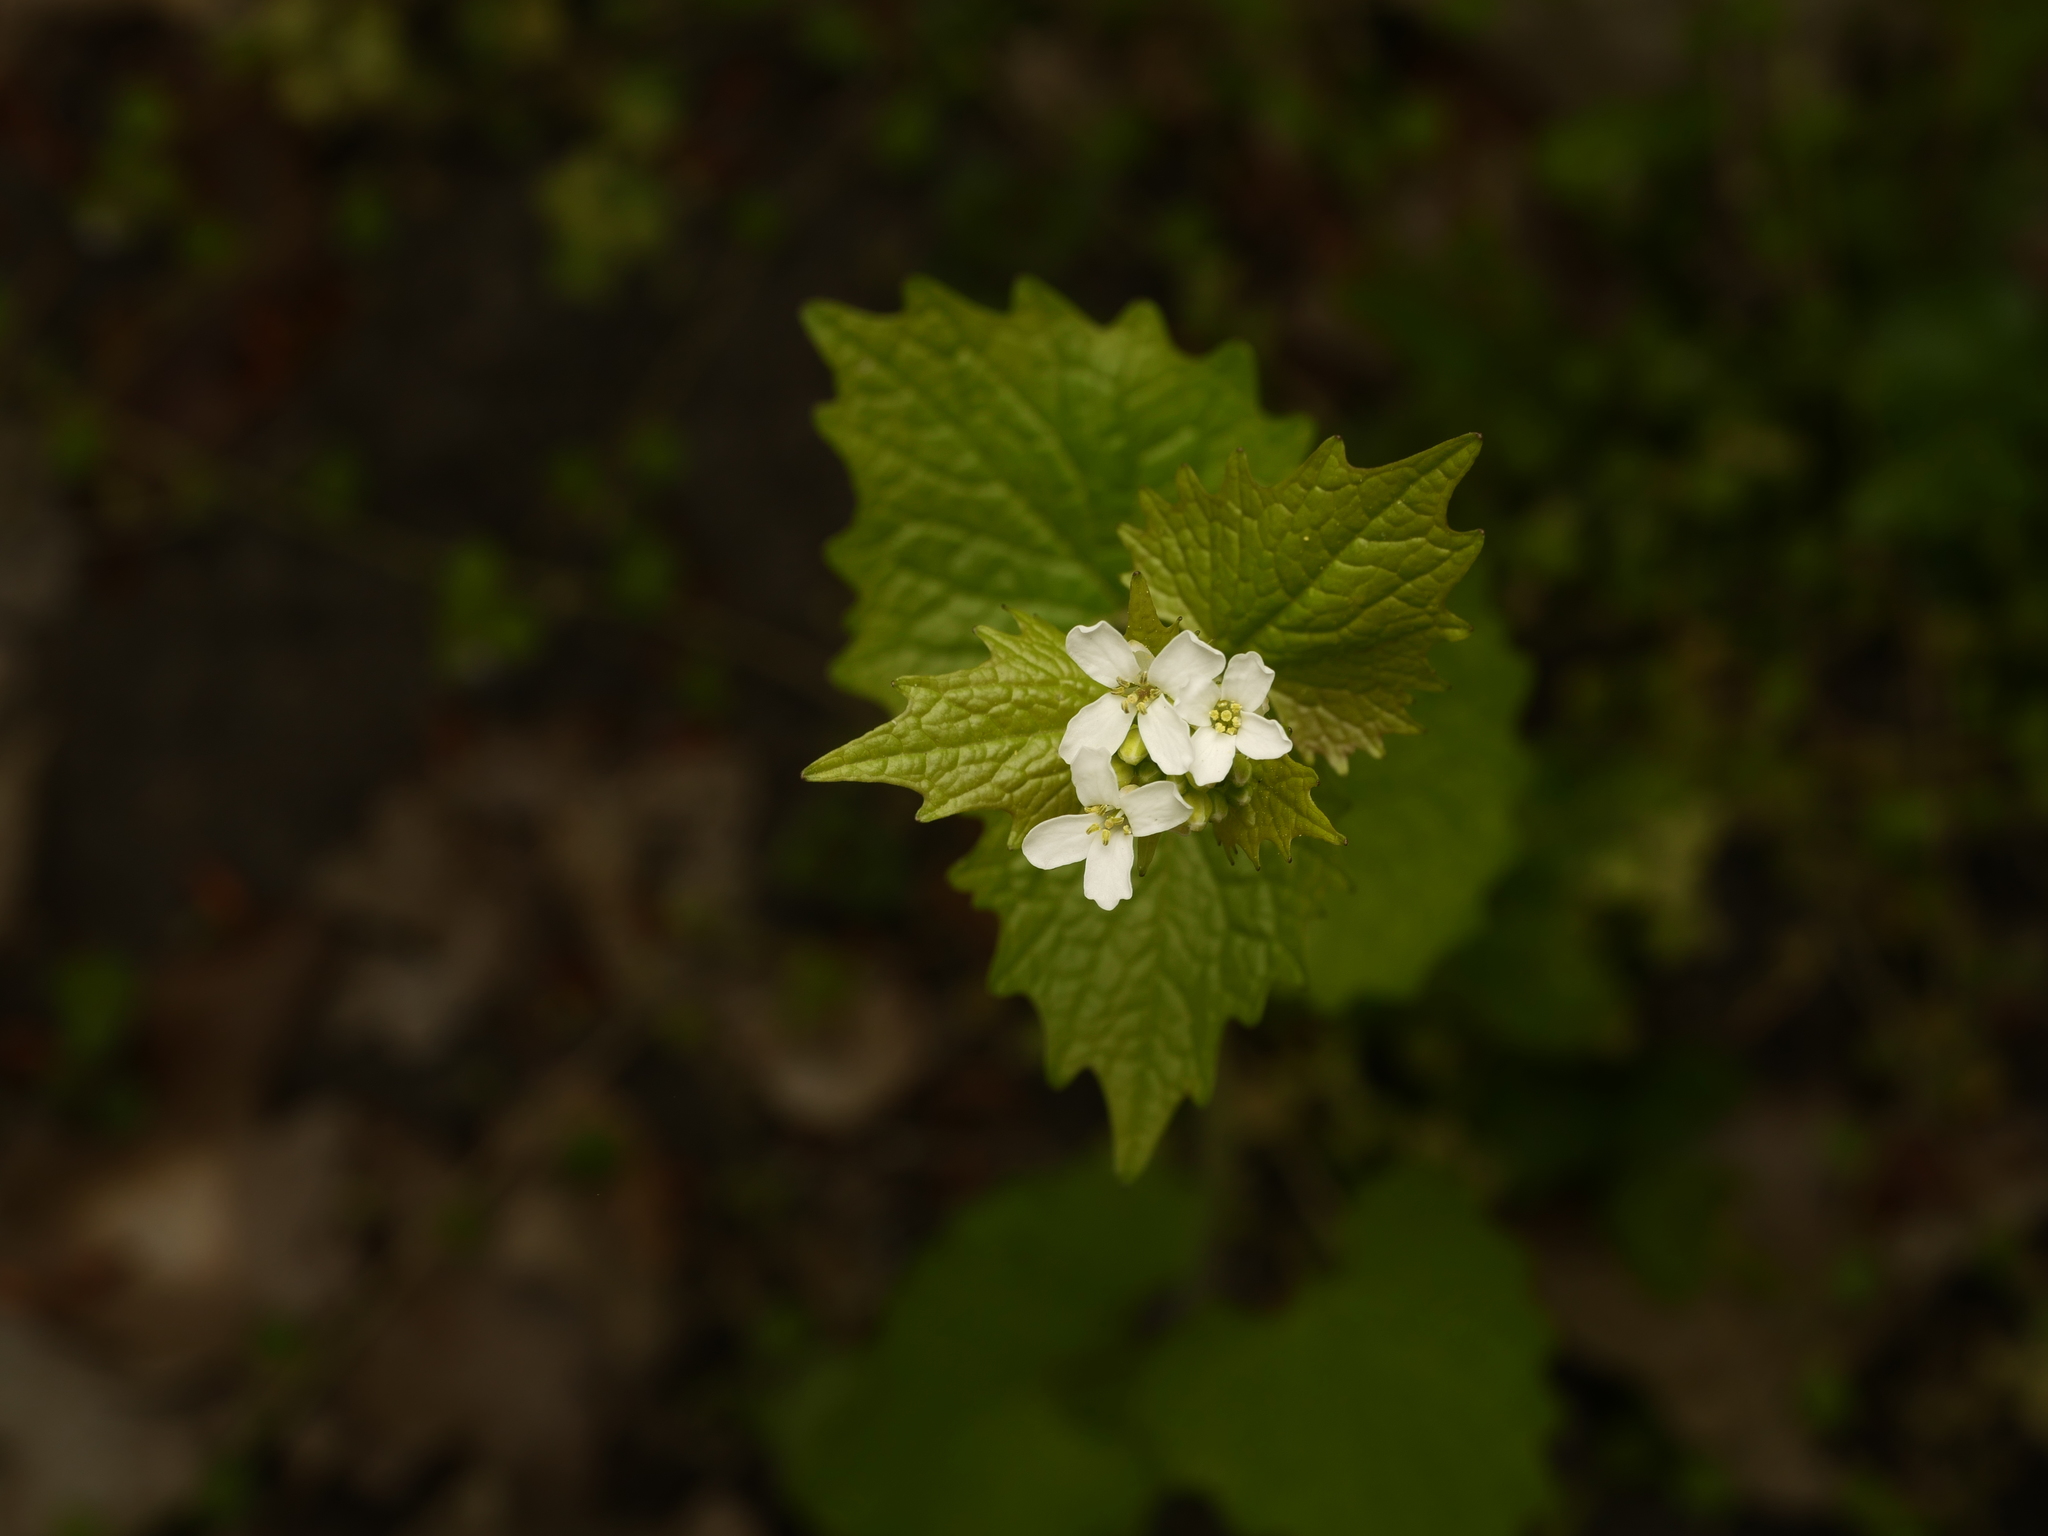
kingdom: Plantae
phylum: Tracheophyta
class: Magnoliopsida
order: Brassicales
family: Brassicaceae
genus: Alliaria
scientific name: Alliaria petiolata
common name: Garlic mustard
